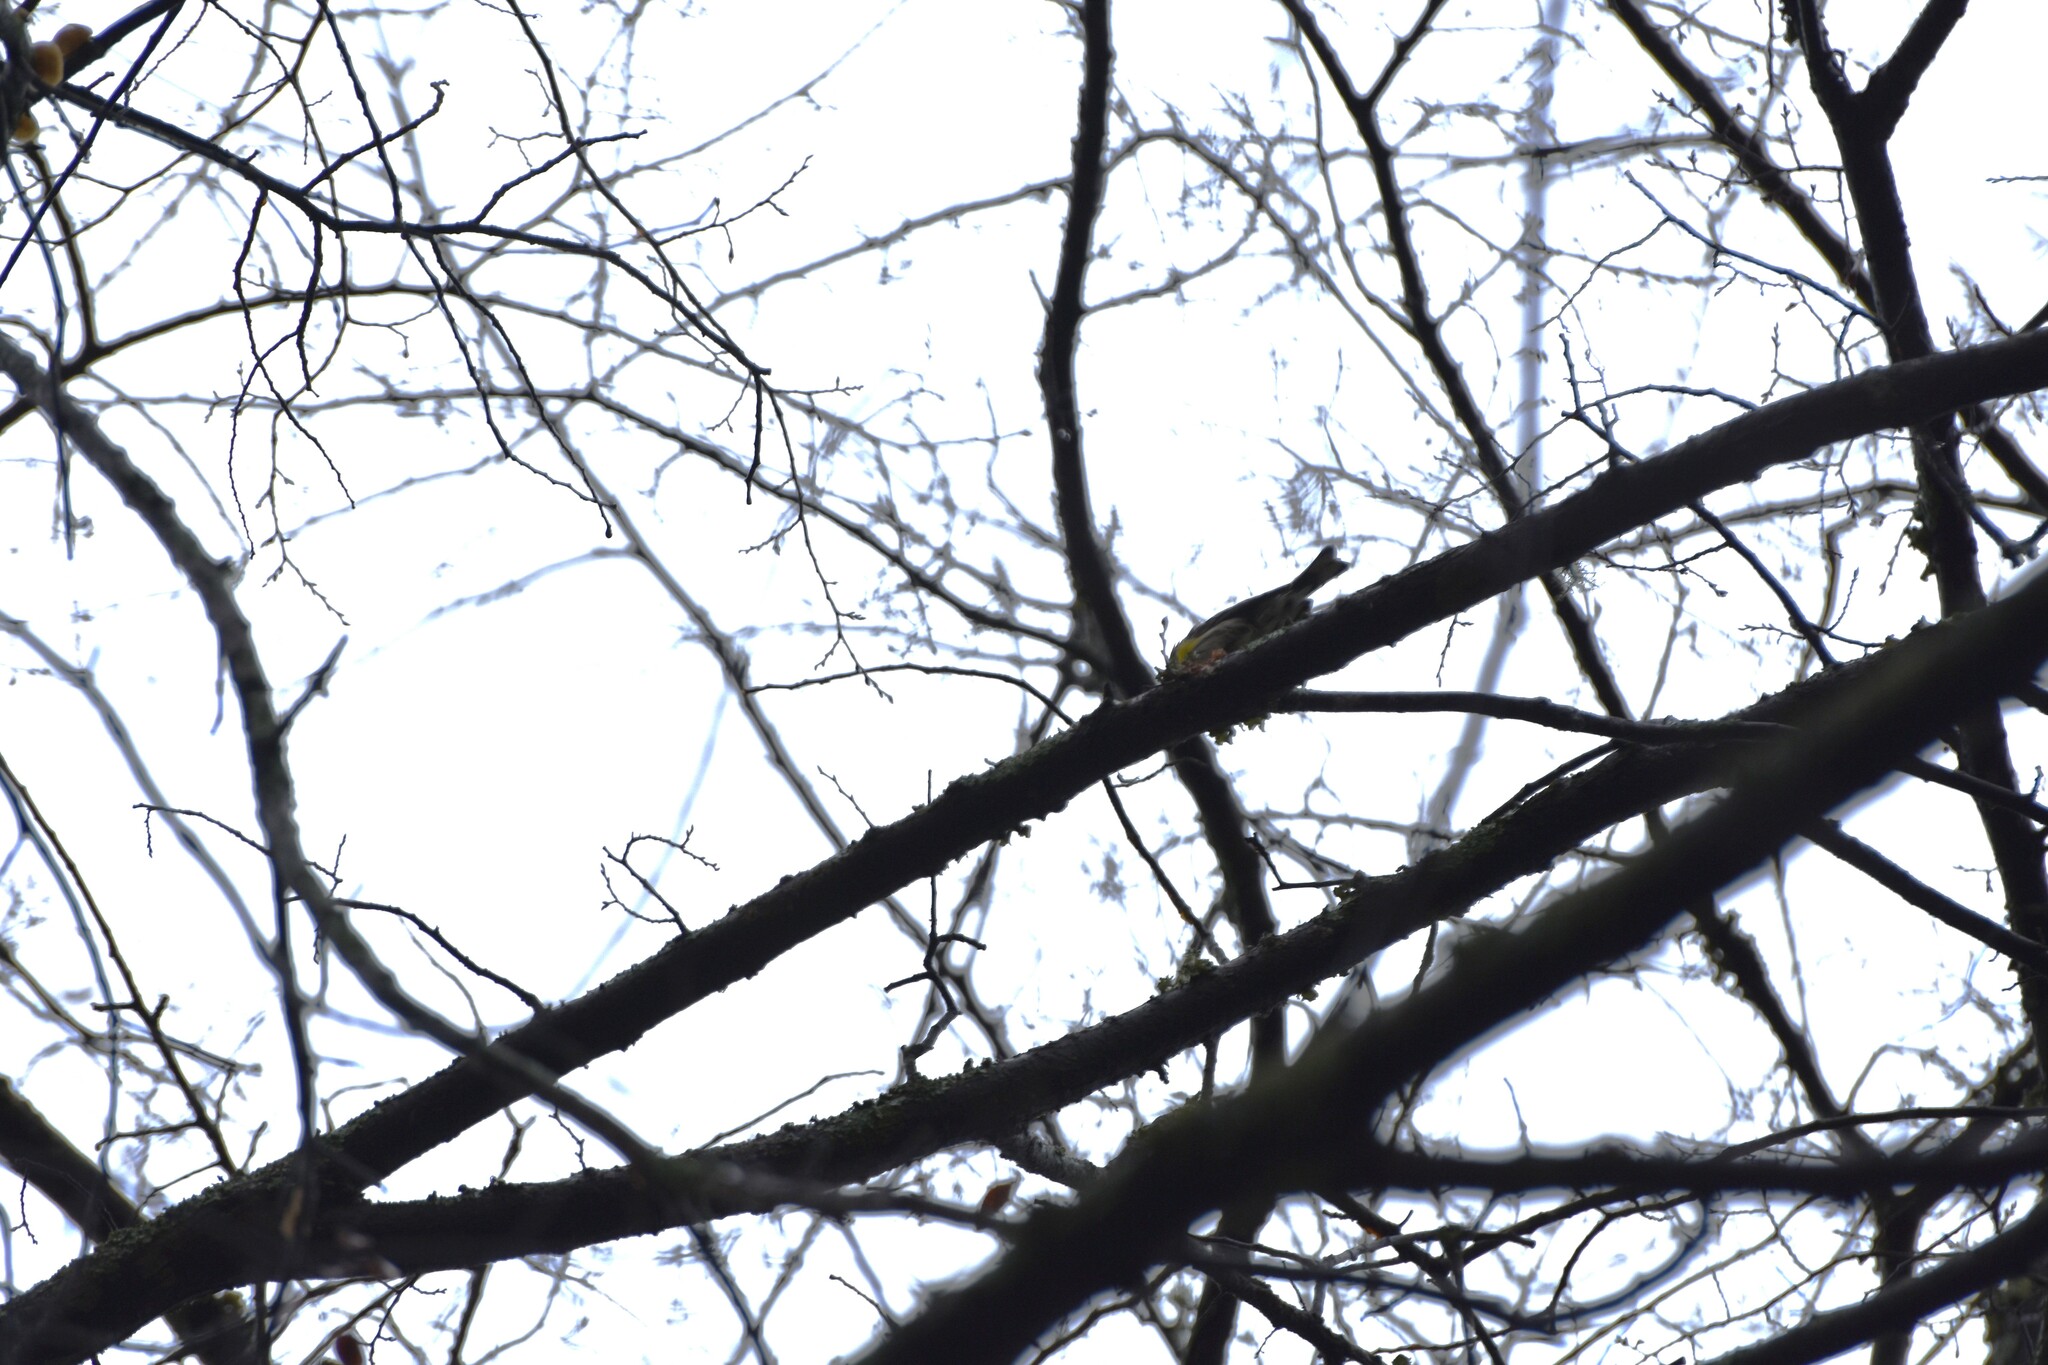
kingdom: Animalia
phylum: Chordata
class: Aves
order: Passeriformes
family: Parulidae
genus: Setophaga
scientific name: Setophaga coronata
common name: Myrtle warbler
